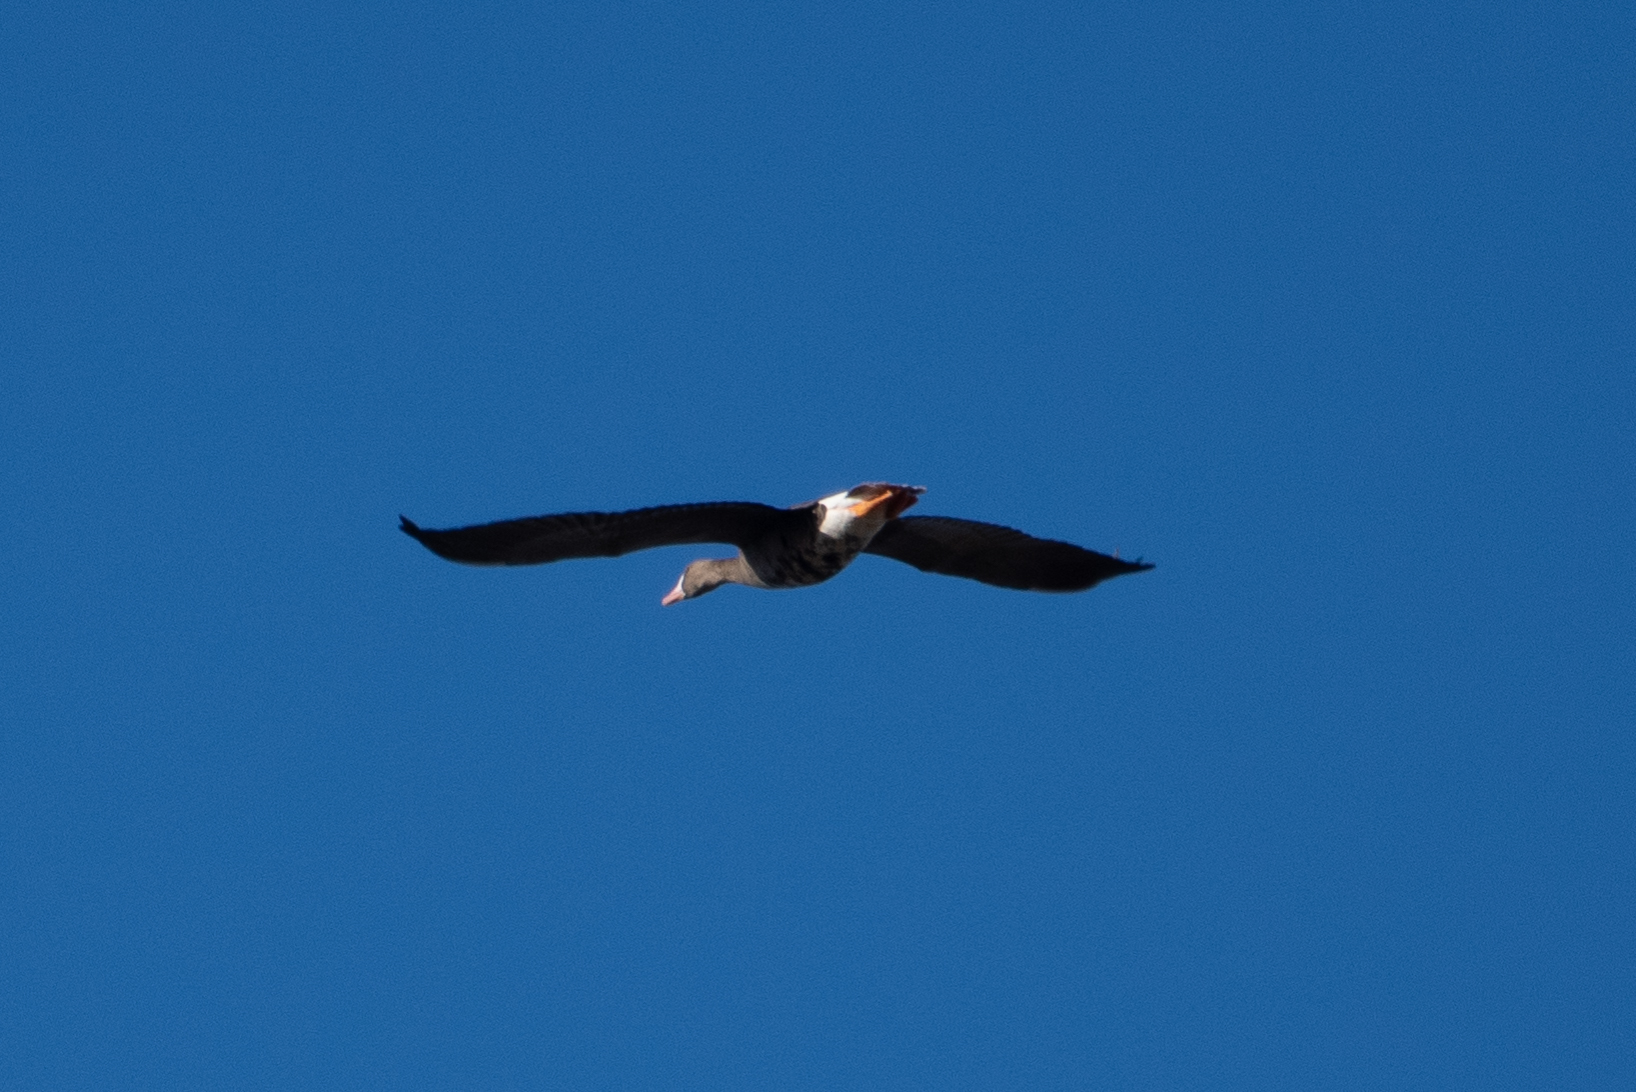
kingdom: Animalia
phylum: Chordata
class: Aves
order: Anseriformes
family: Anatidae
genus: Anser
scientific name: Anser albifrons
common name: Greater white-fronted goose
